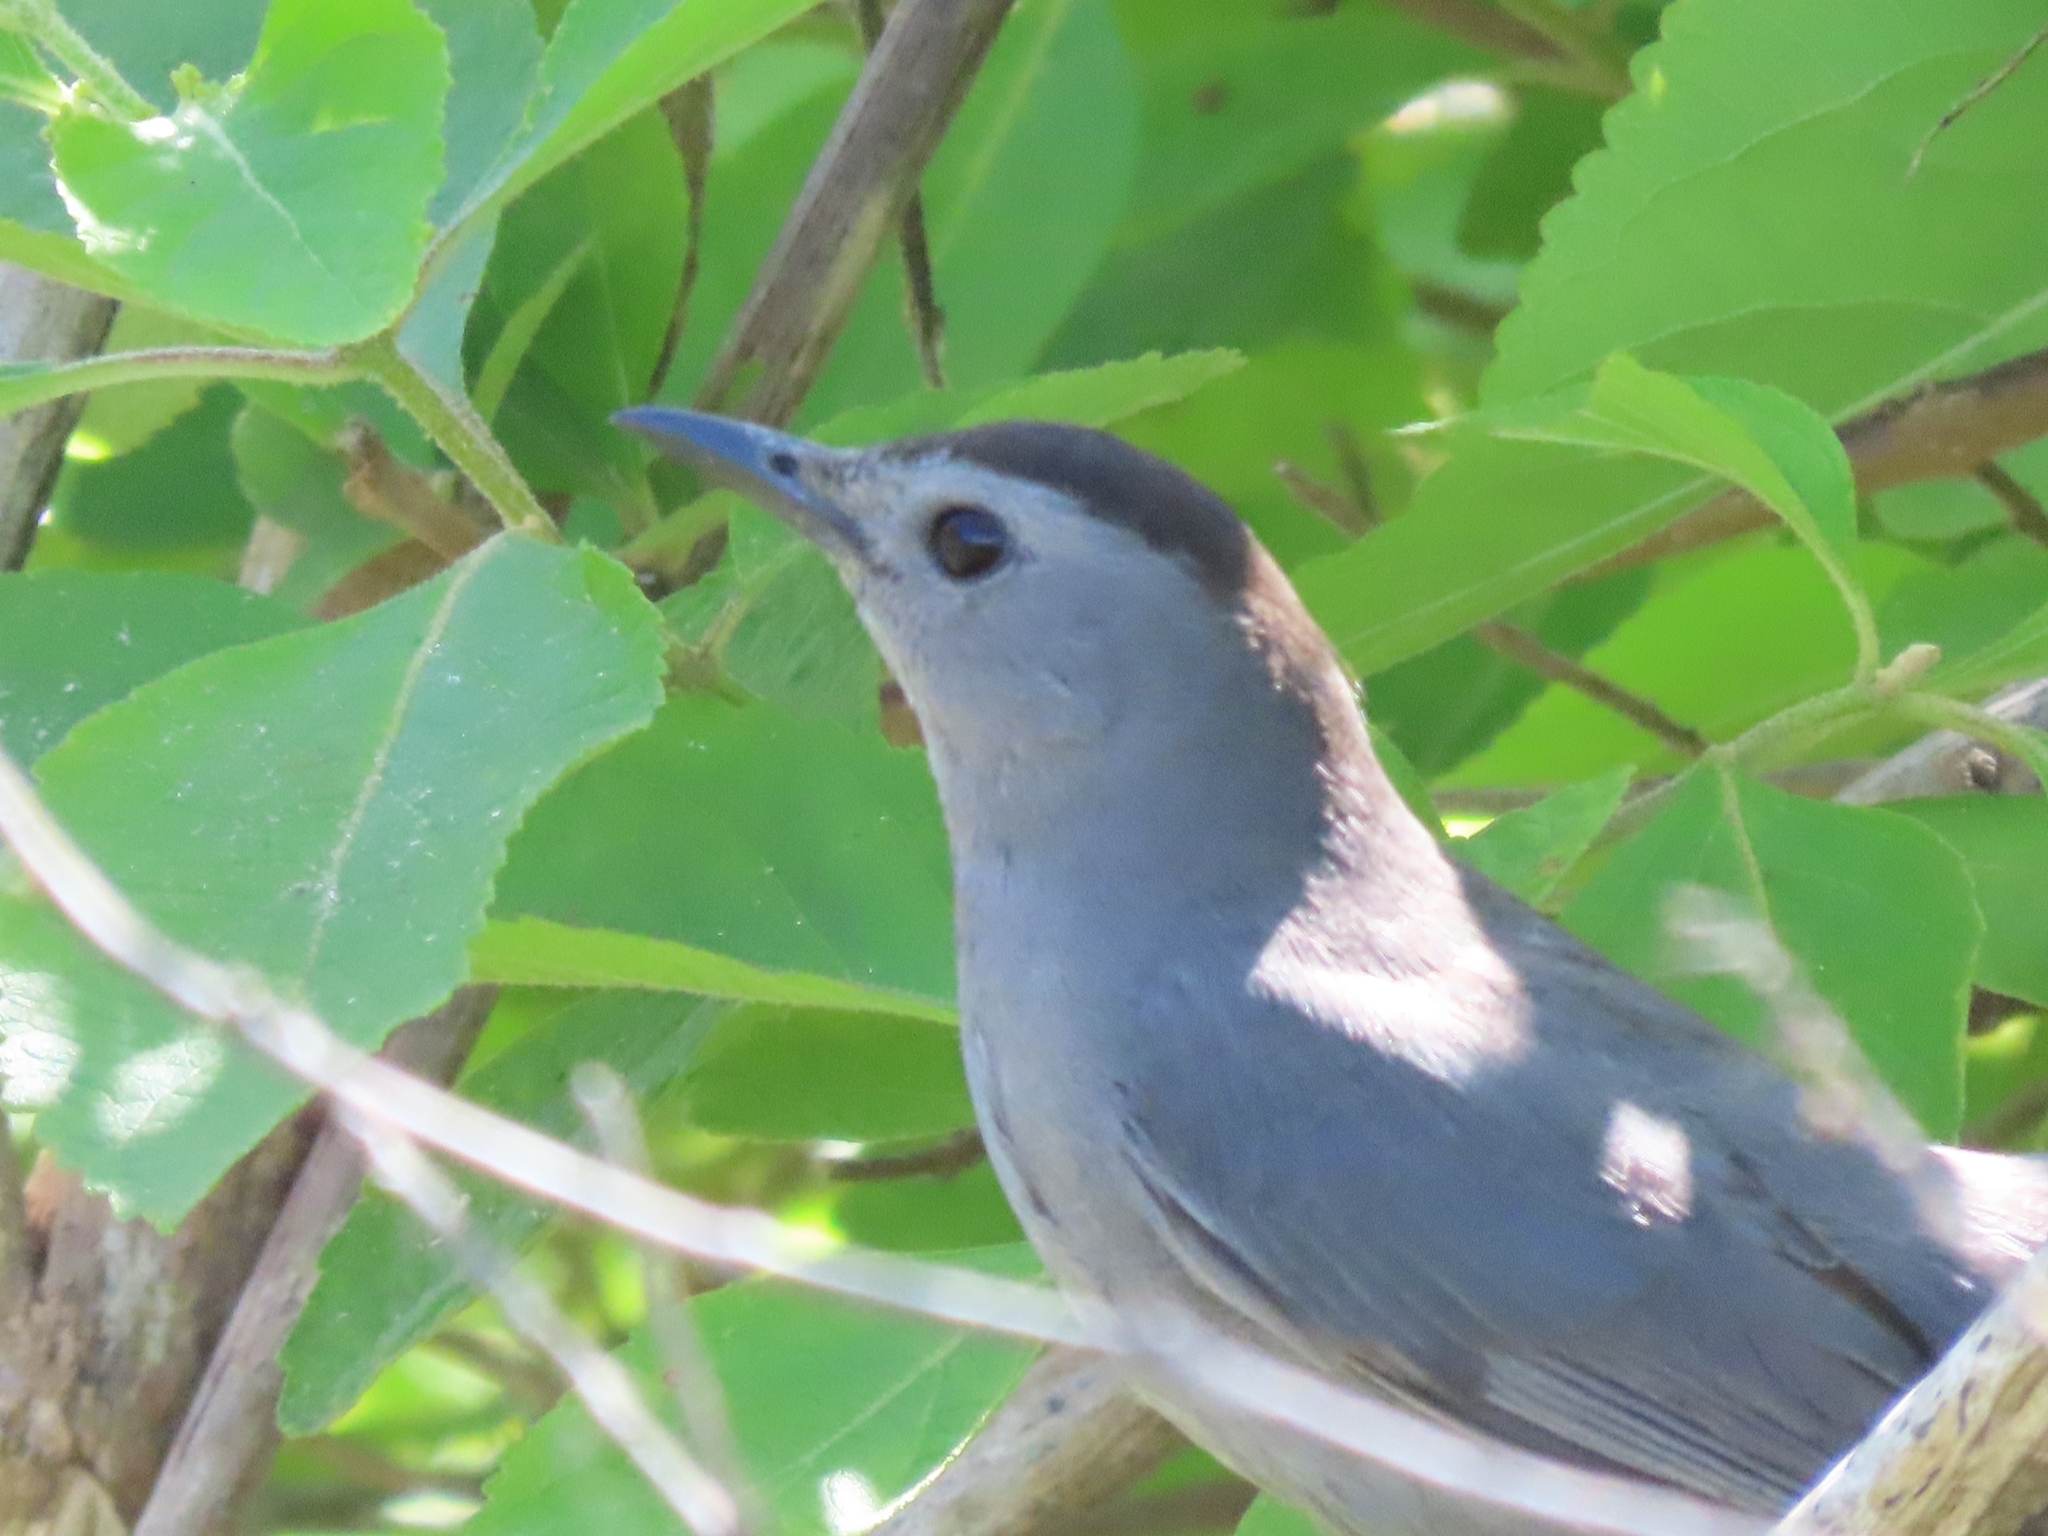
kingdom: Animalia
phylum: Chordata
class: Aves
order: Passeriformes
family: Mimidae
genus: Dumetella
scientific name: Dumetella carolinensis
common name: Gray catbird
